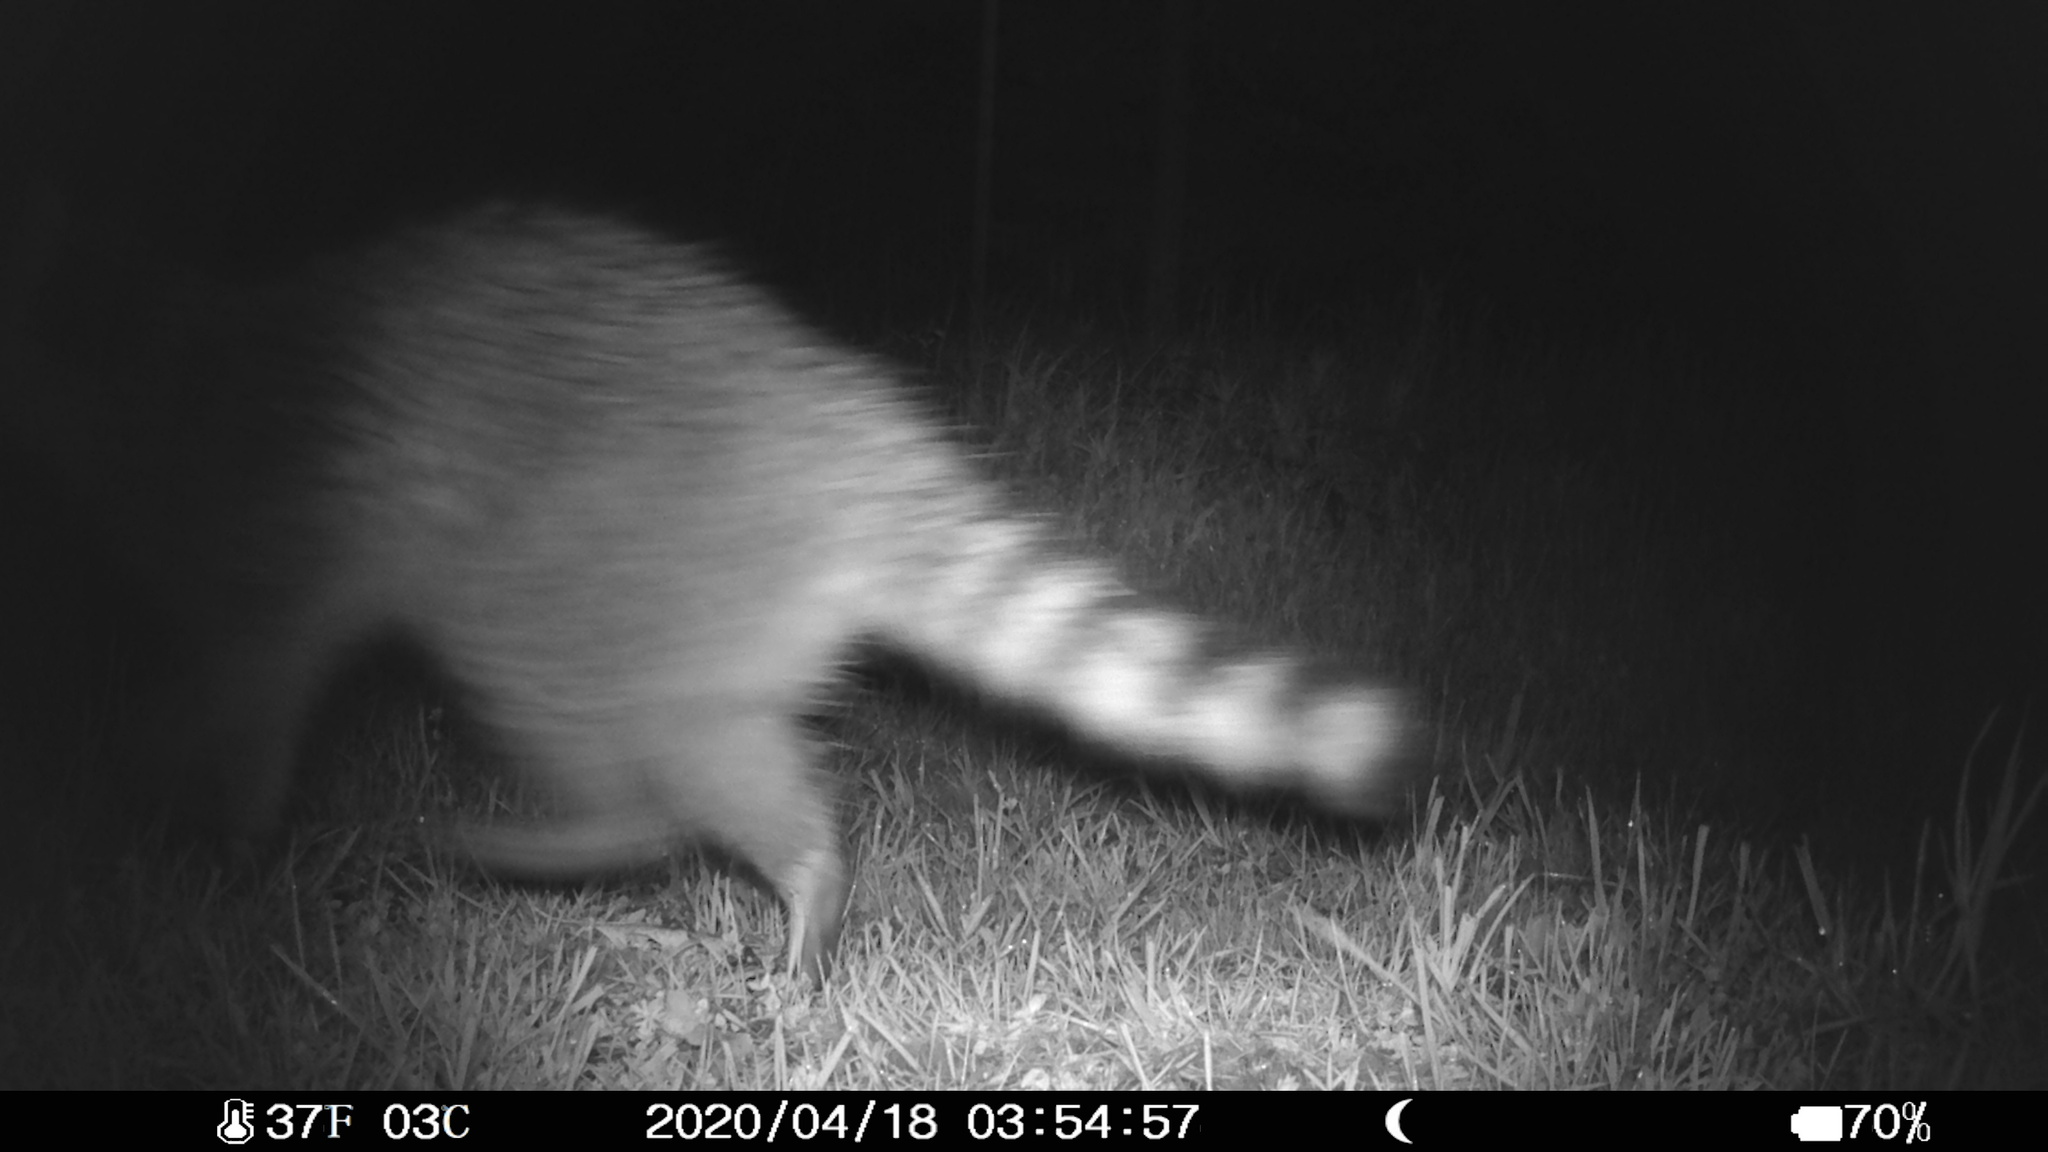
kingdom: Animalia
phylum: Chordata
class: Mammalia
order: Carnivora
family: Procyonidae
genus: Procyon
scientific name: Procyon lotor
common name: Raccoon
